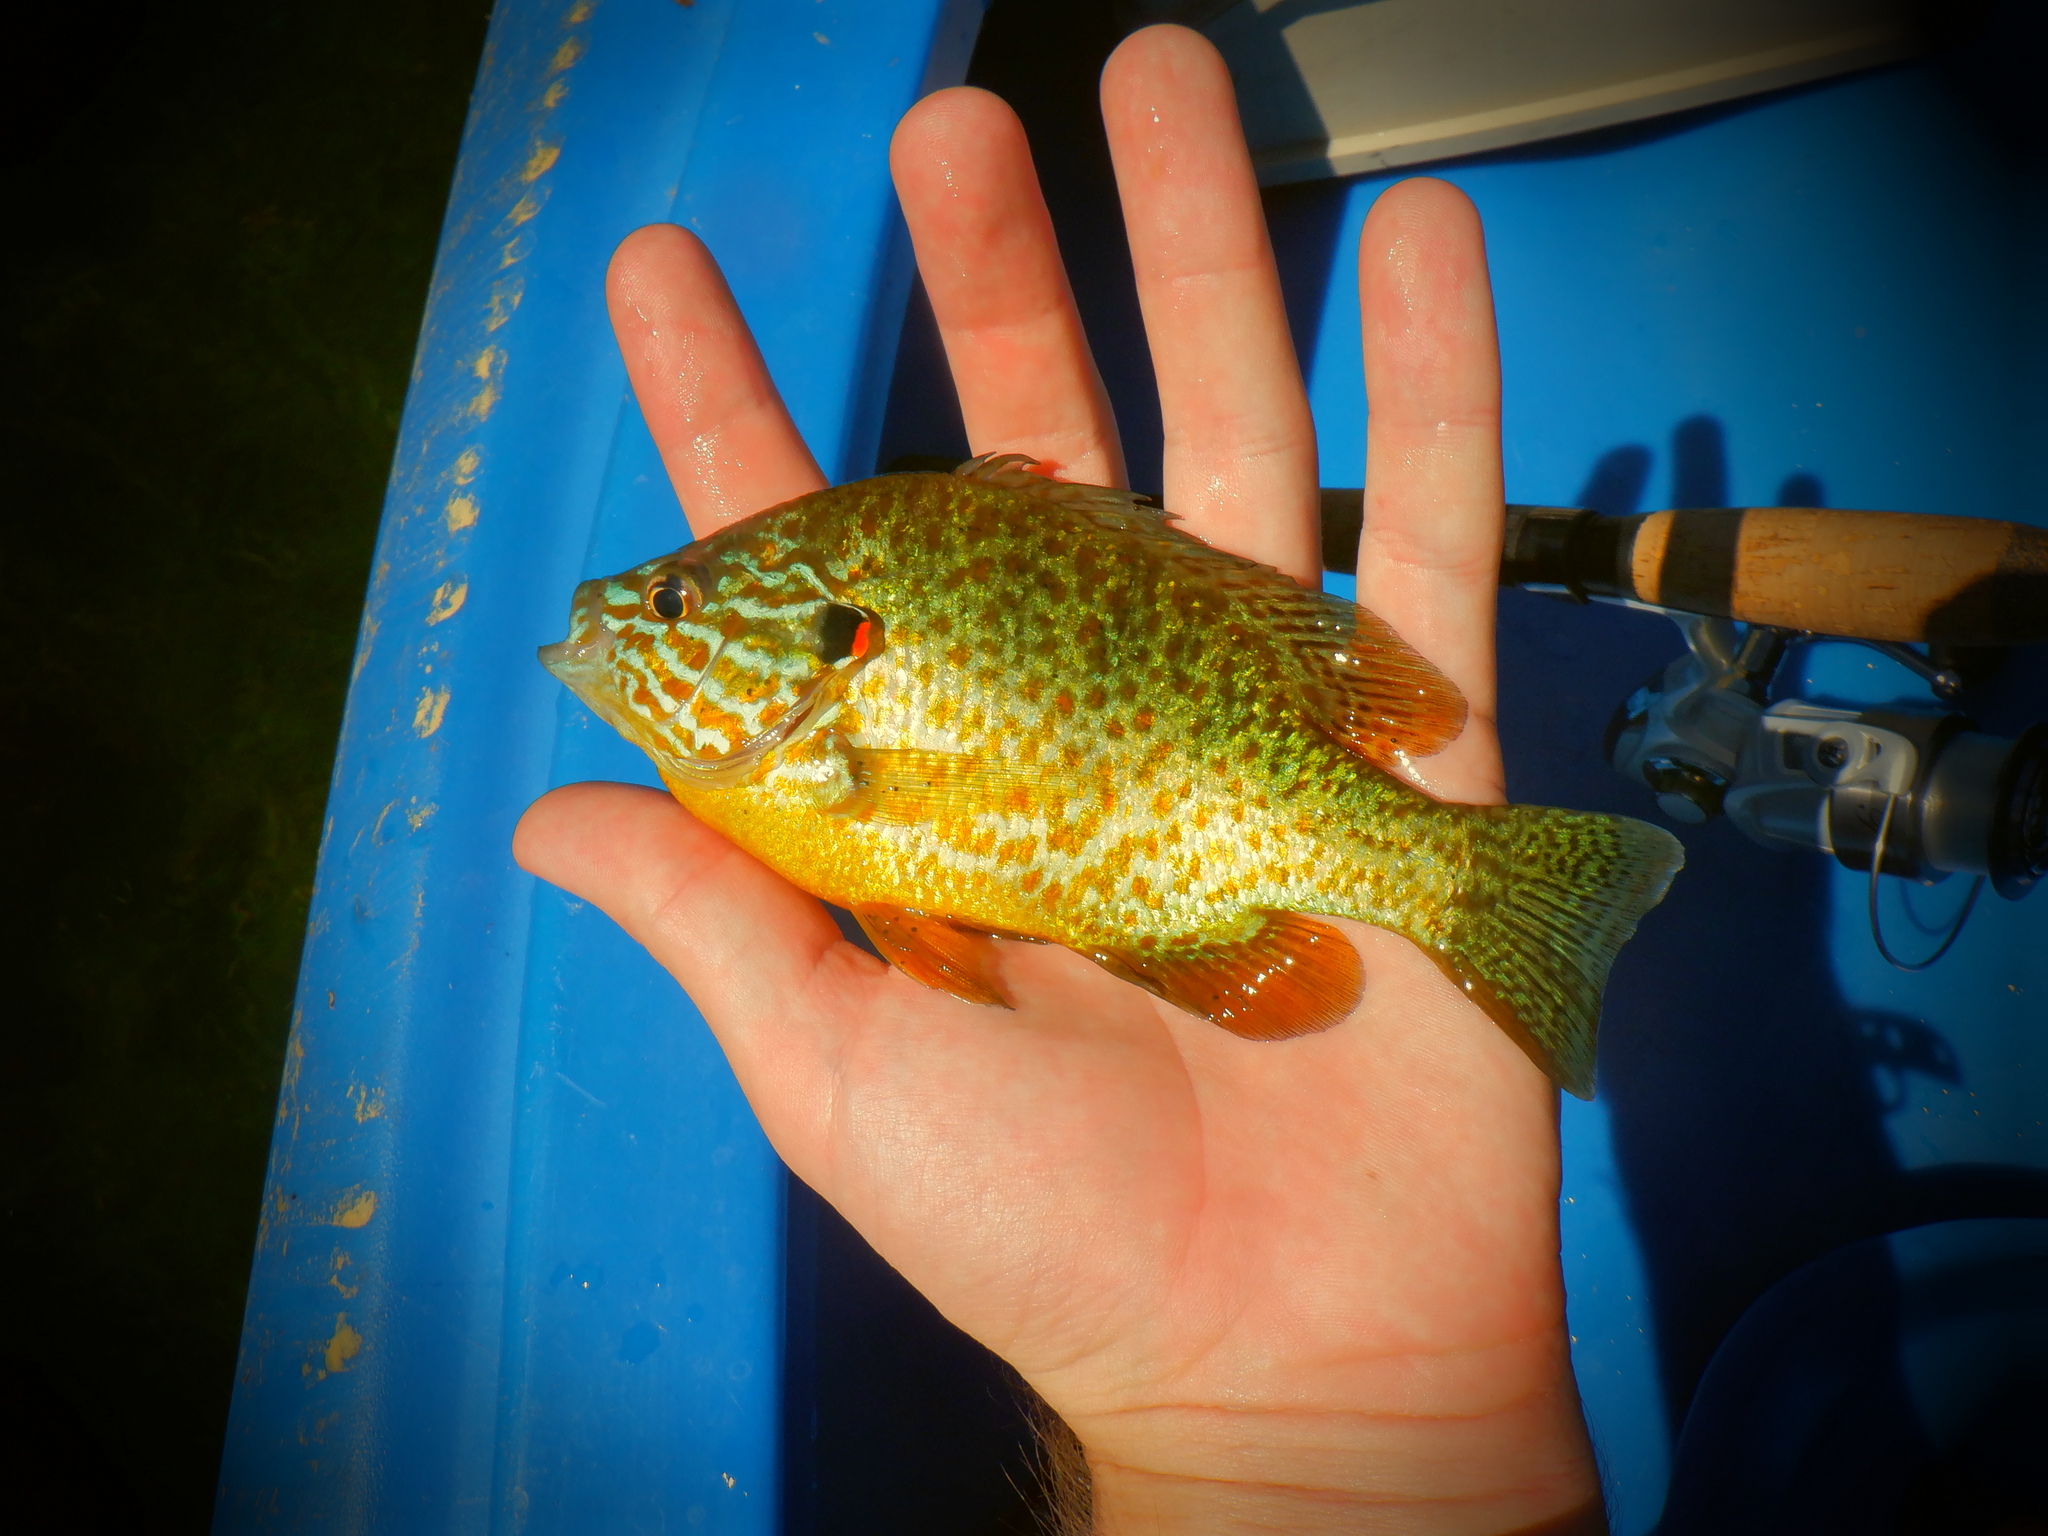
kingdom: Animalia
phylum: Chordata
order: Perciformes
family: Centrarchidae
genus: Lepomis
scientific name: Lepomis gibbosus
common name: Pumpkinseed
